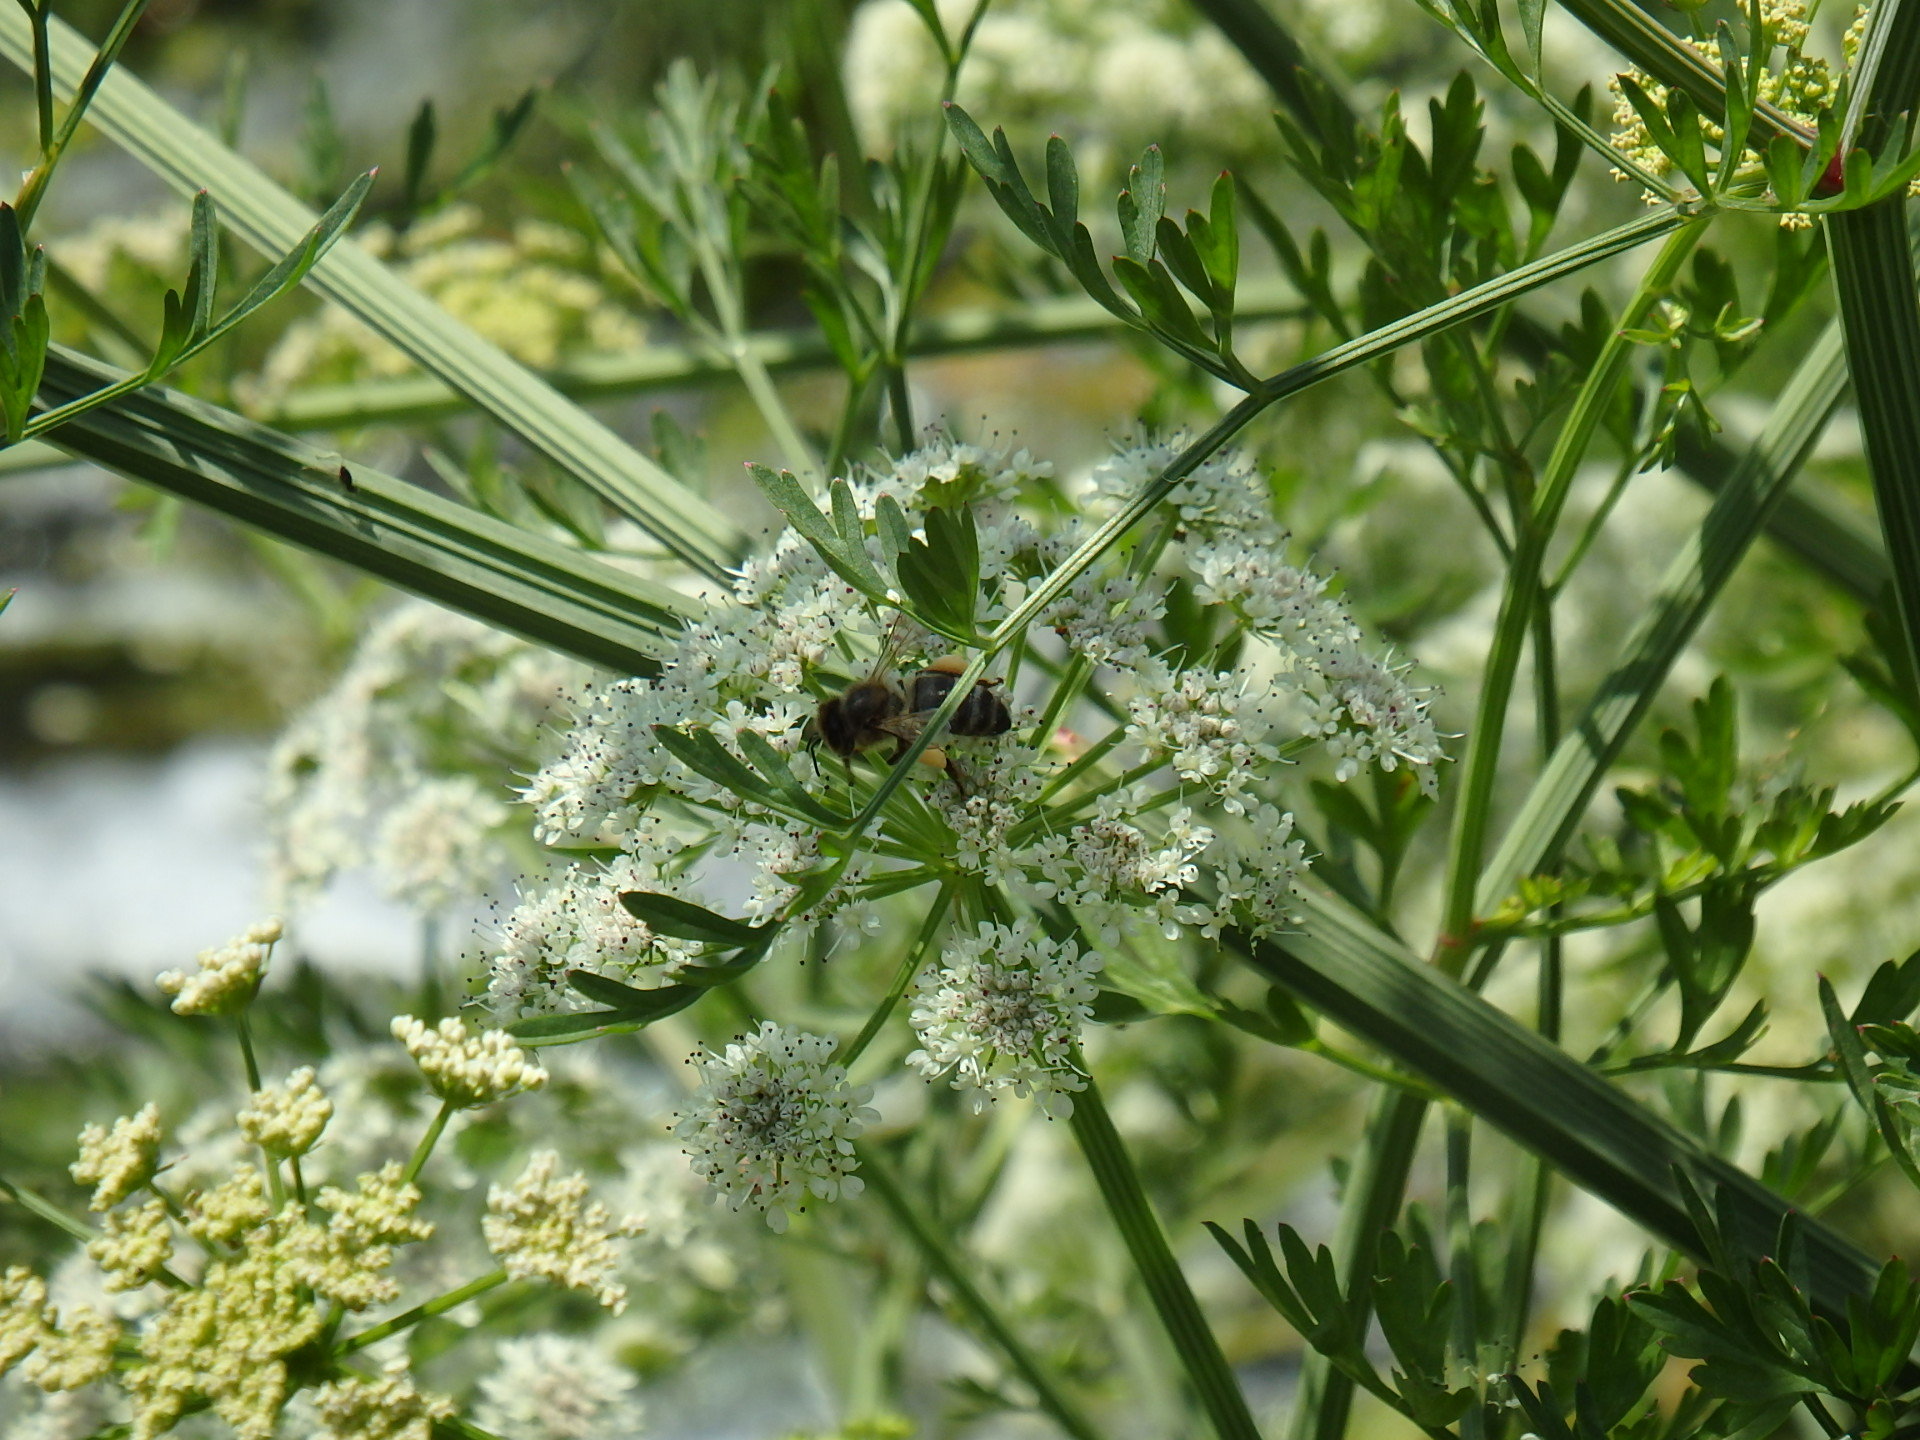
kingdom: Animalia
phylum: Arthropoda
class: Insecta
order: Hymenoptera
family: Apidae
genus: Apis
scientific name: Apis mellifera
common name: Honey bee
